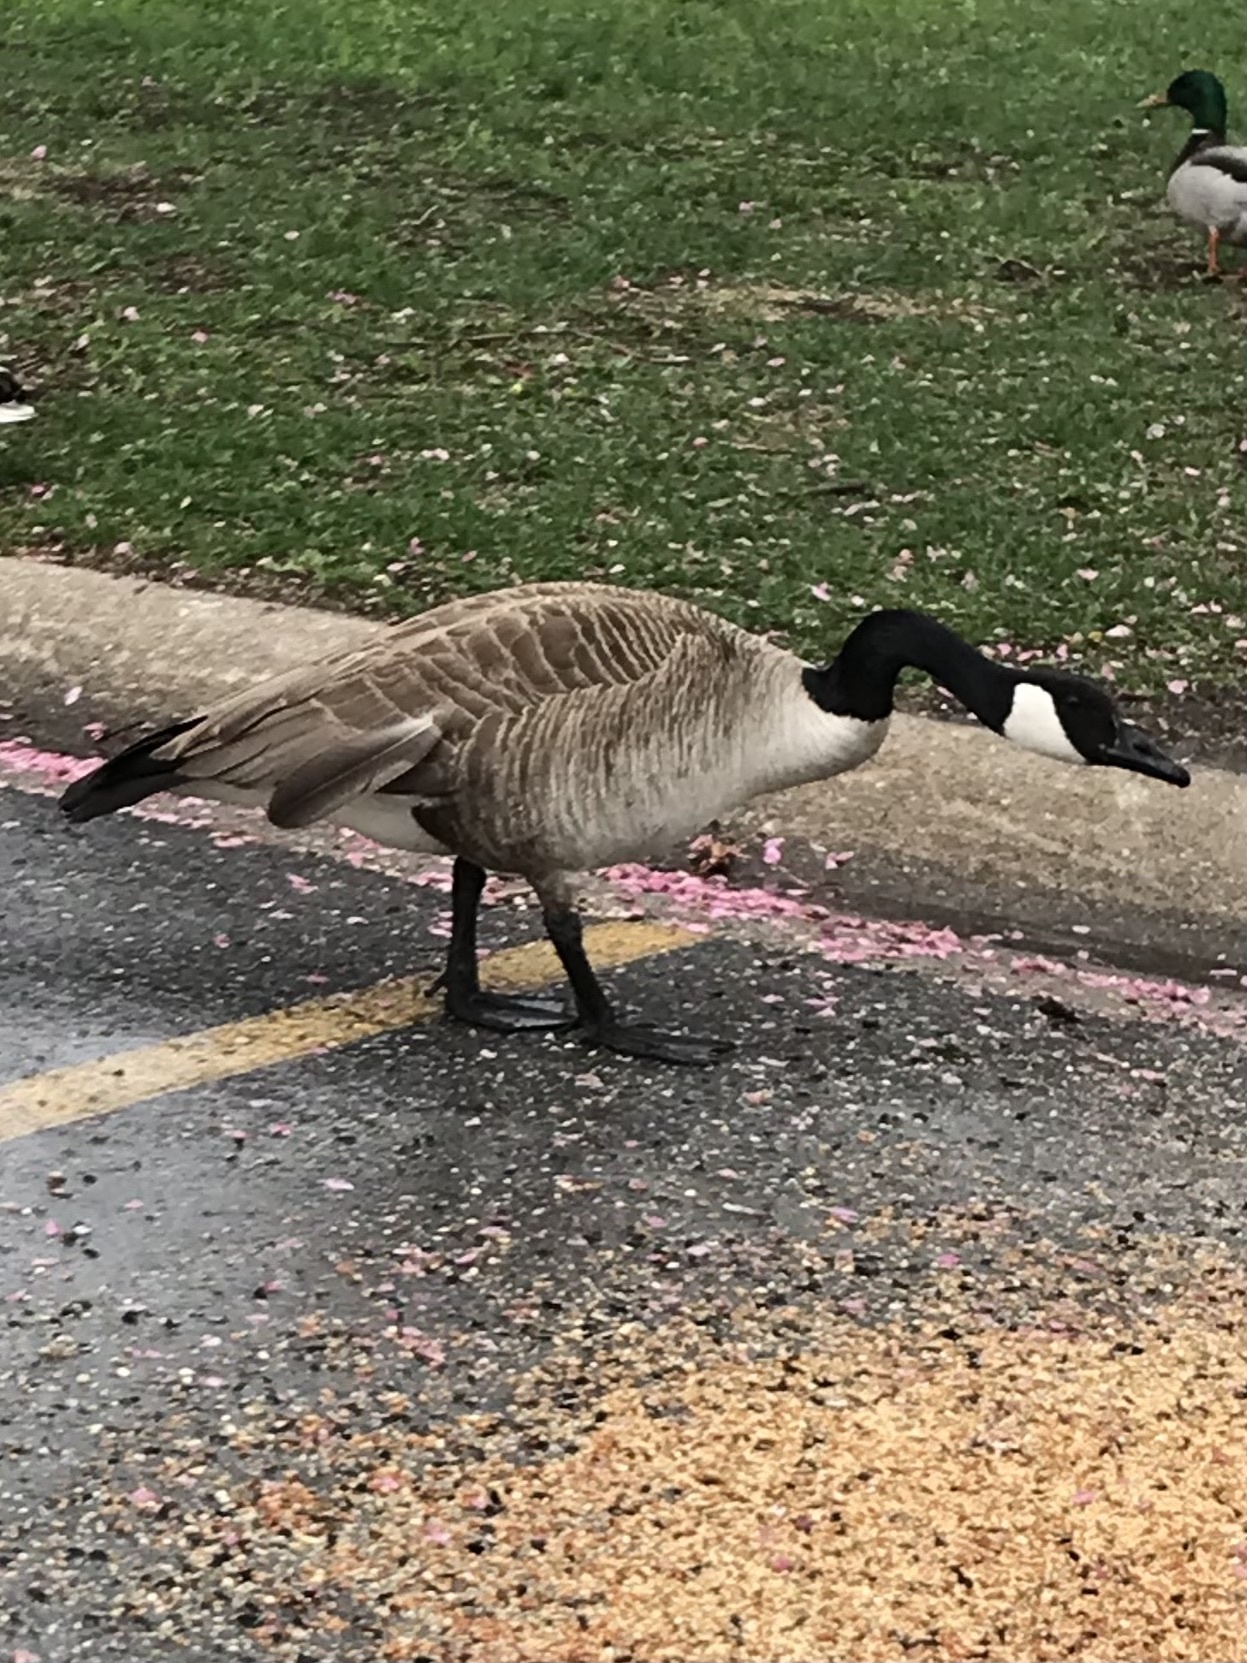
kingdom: Animalia
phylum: Chordata
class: Aves
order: Anseriformes
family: Anatidae
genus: Branta
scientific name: Branta canadensis
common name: Canada goose
